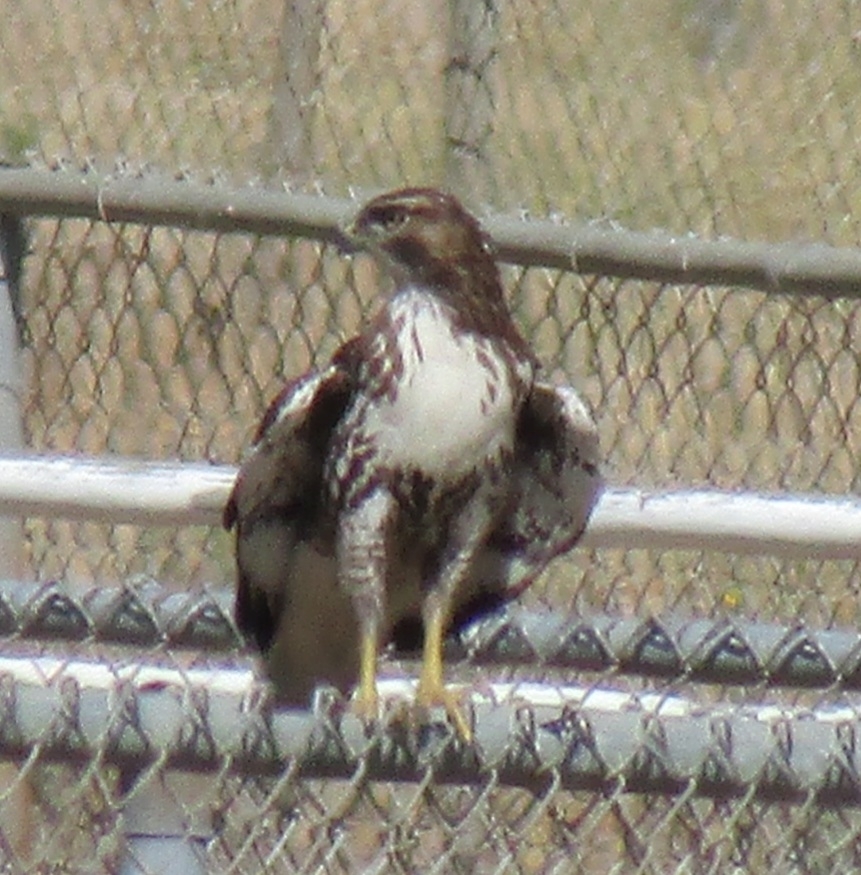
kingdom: Animalia
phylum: Chordata
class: Aves
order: Accipitriformes
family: Accipitridae
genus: Buteo
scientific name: Buteo jamaicensis
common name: Red-tailed hawk
